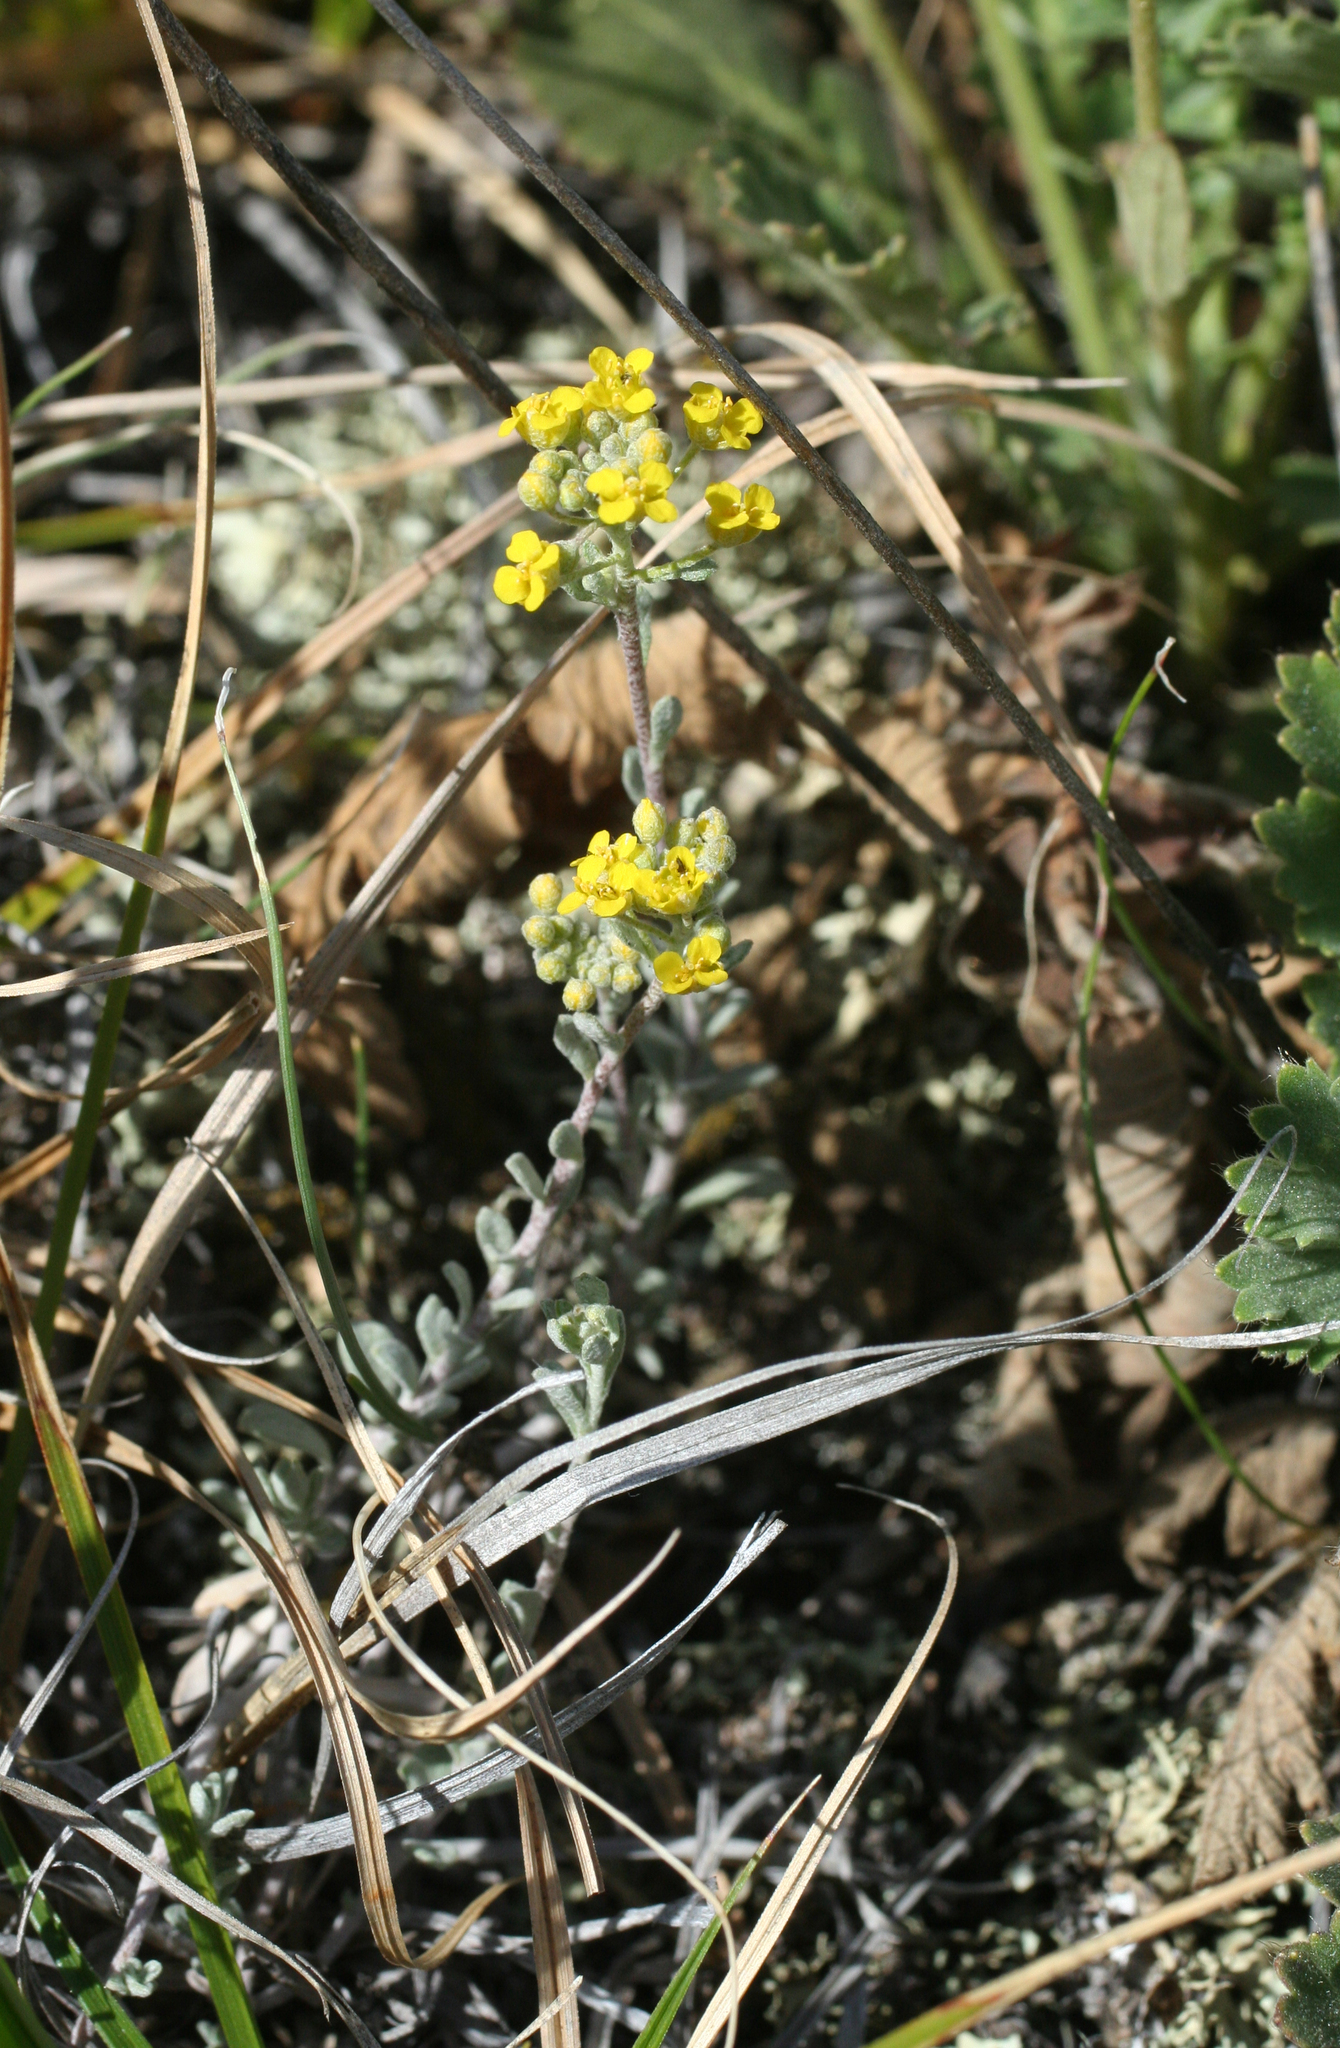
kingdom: Plantae
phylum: Tracheophyta
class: Magnoliopsida
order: Brassicales
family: Brassicaceae
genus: Alyssum
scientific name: Alyssum lenense
